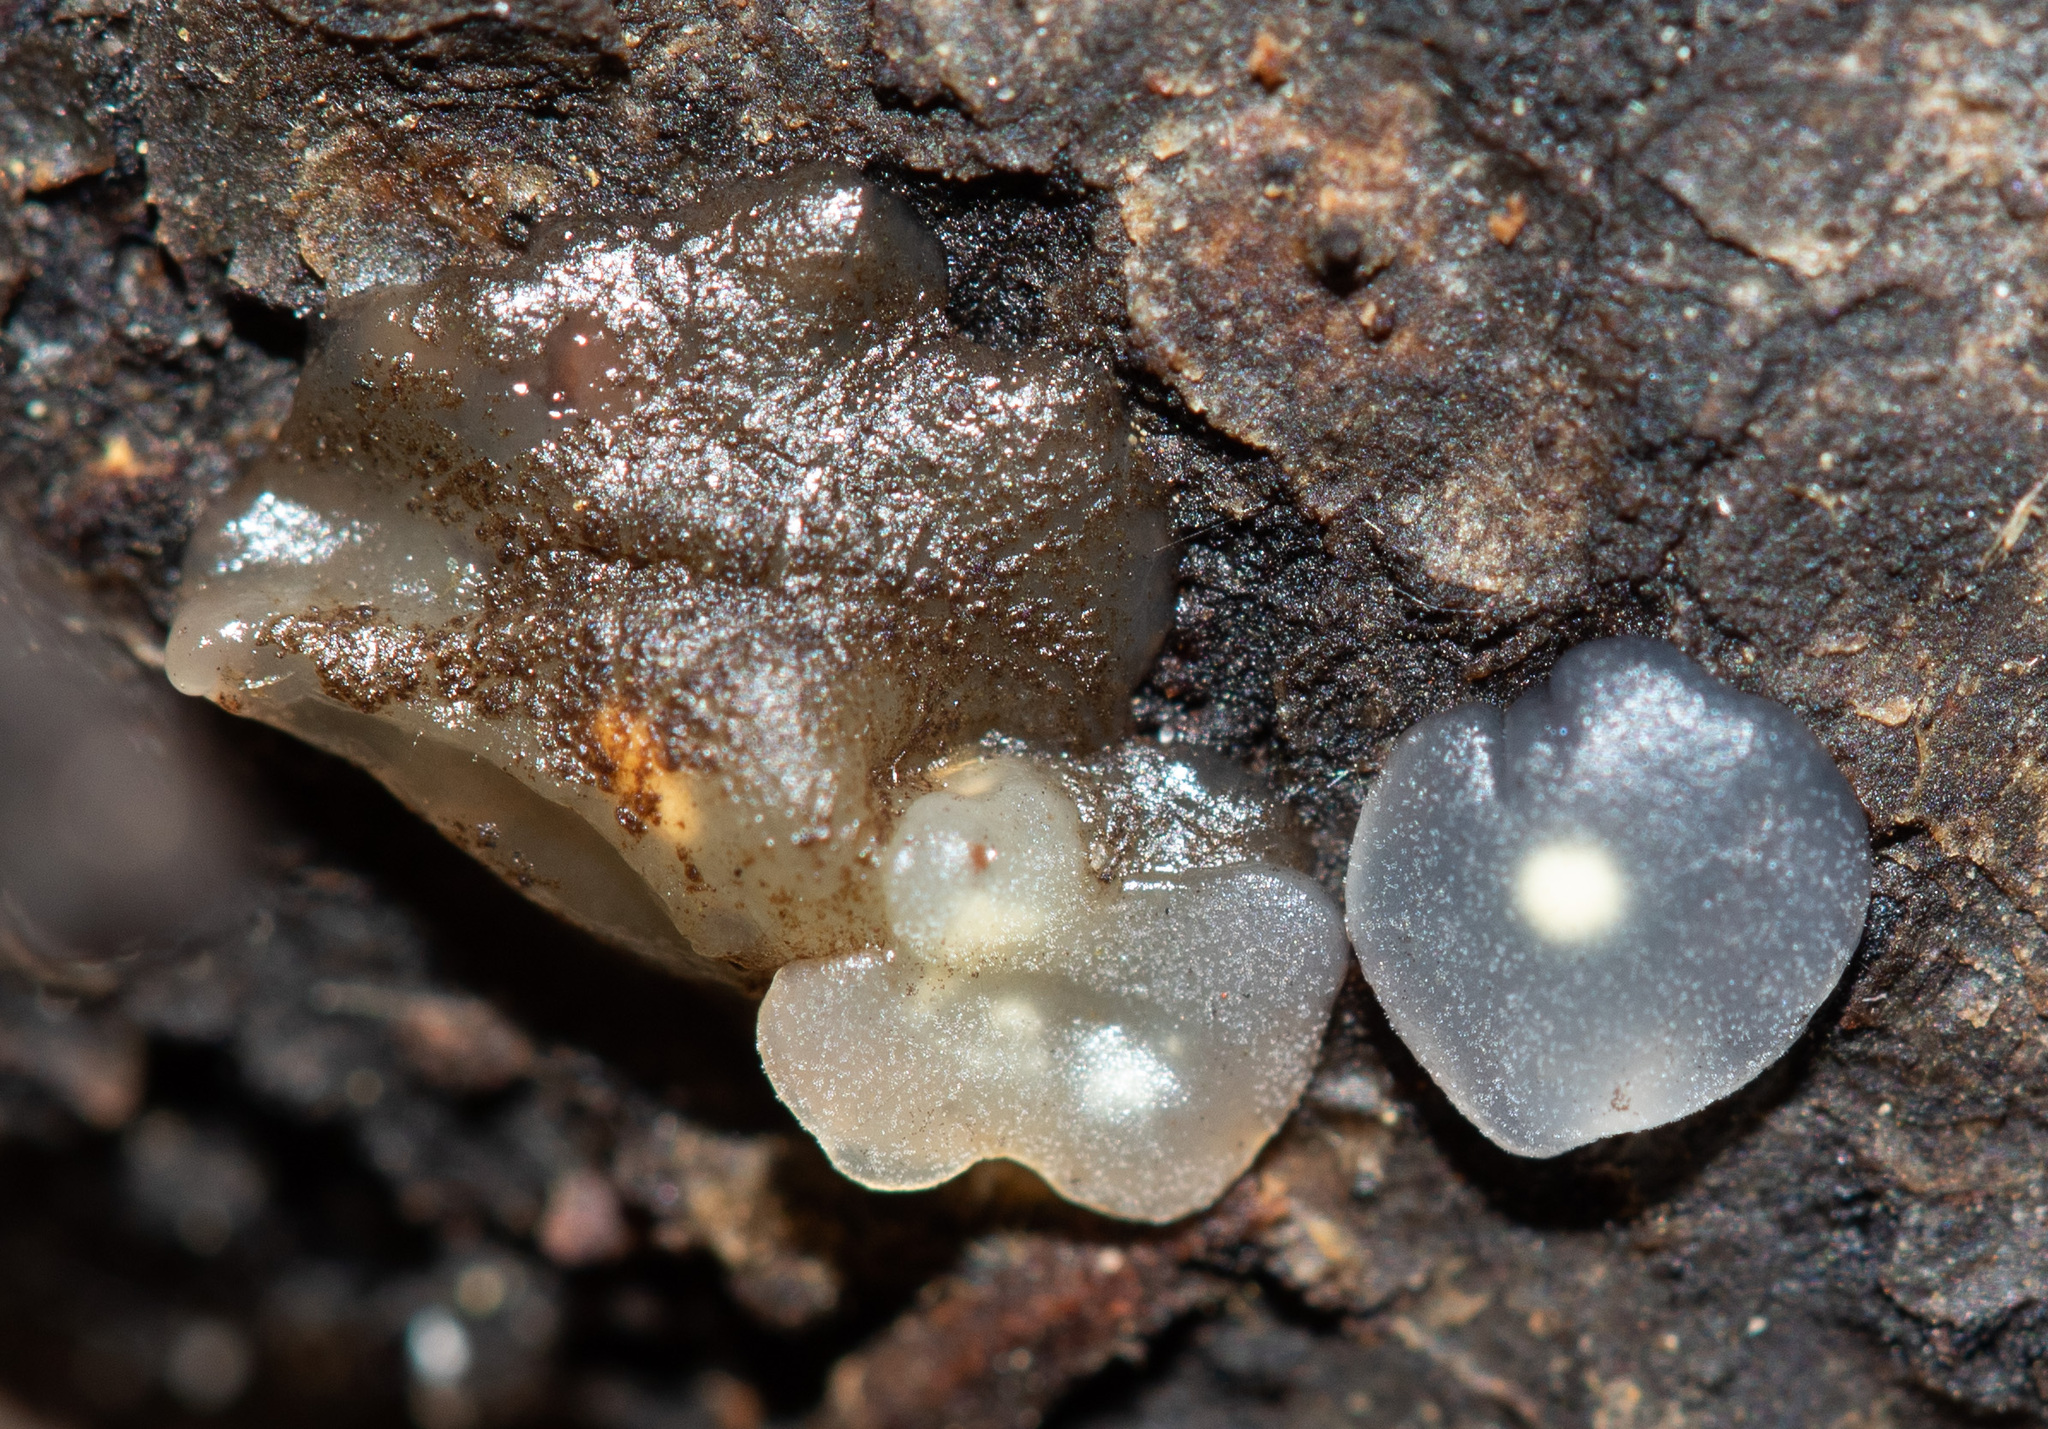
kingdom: Fungi
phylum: Basidiomycota
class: Agaricomycetes
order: Auriculariales
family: Hyaloriaceae
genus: Myxarium
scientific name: Myxarium nucleatum
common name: Crystal brain fungus
